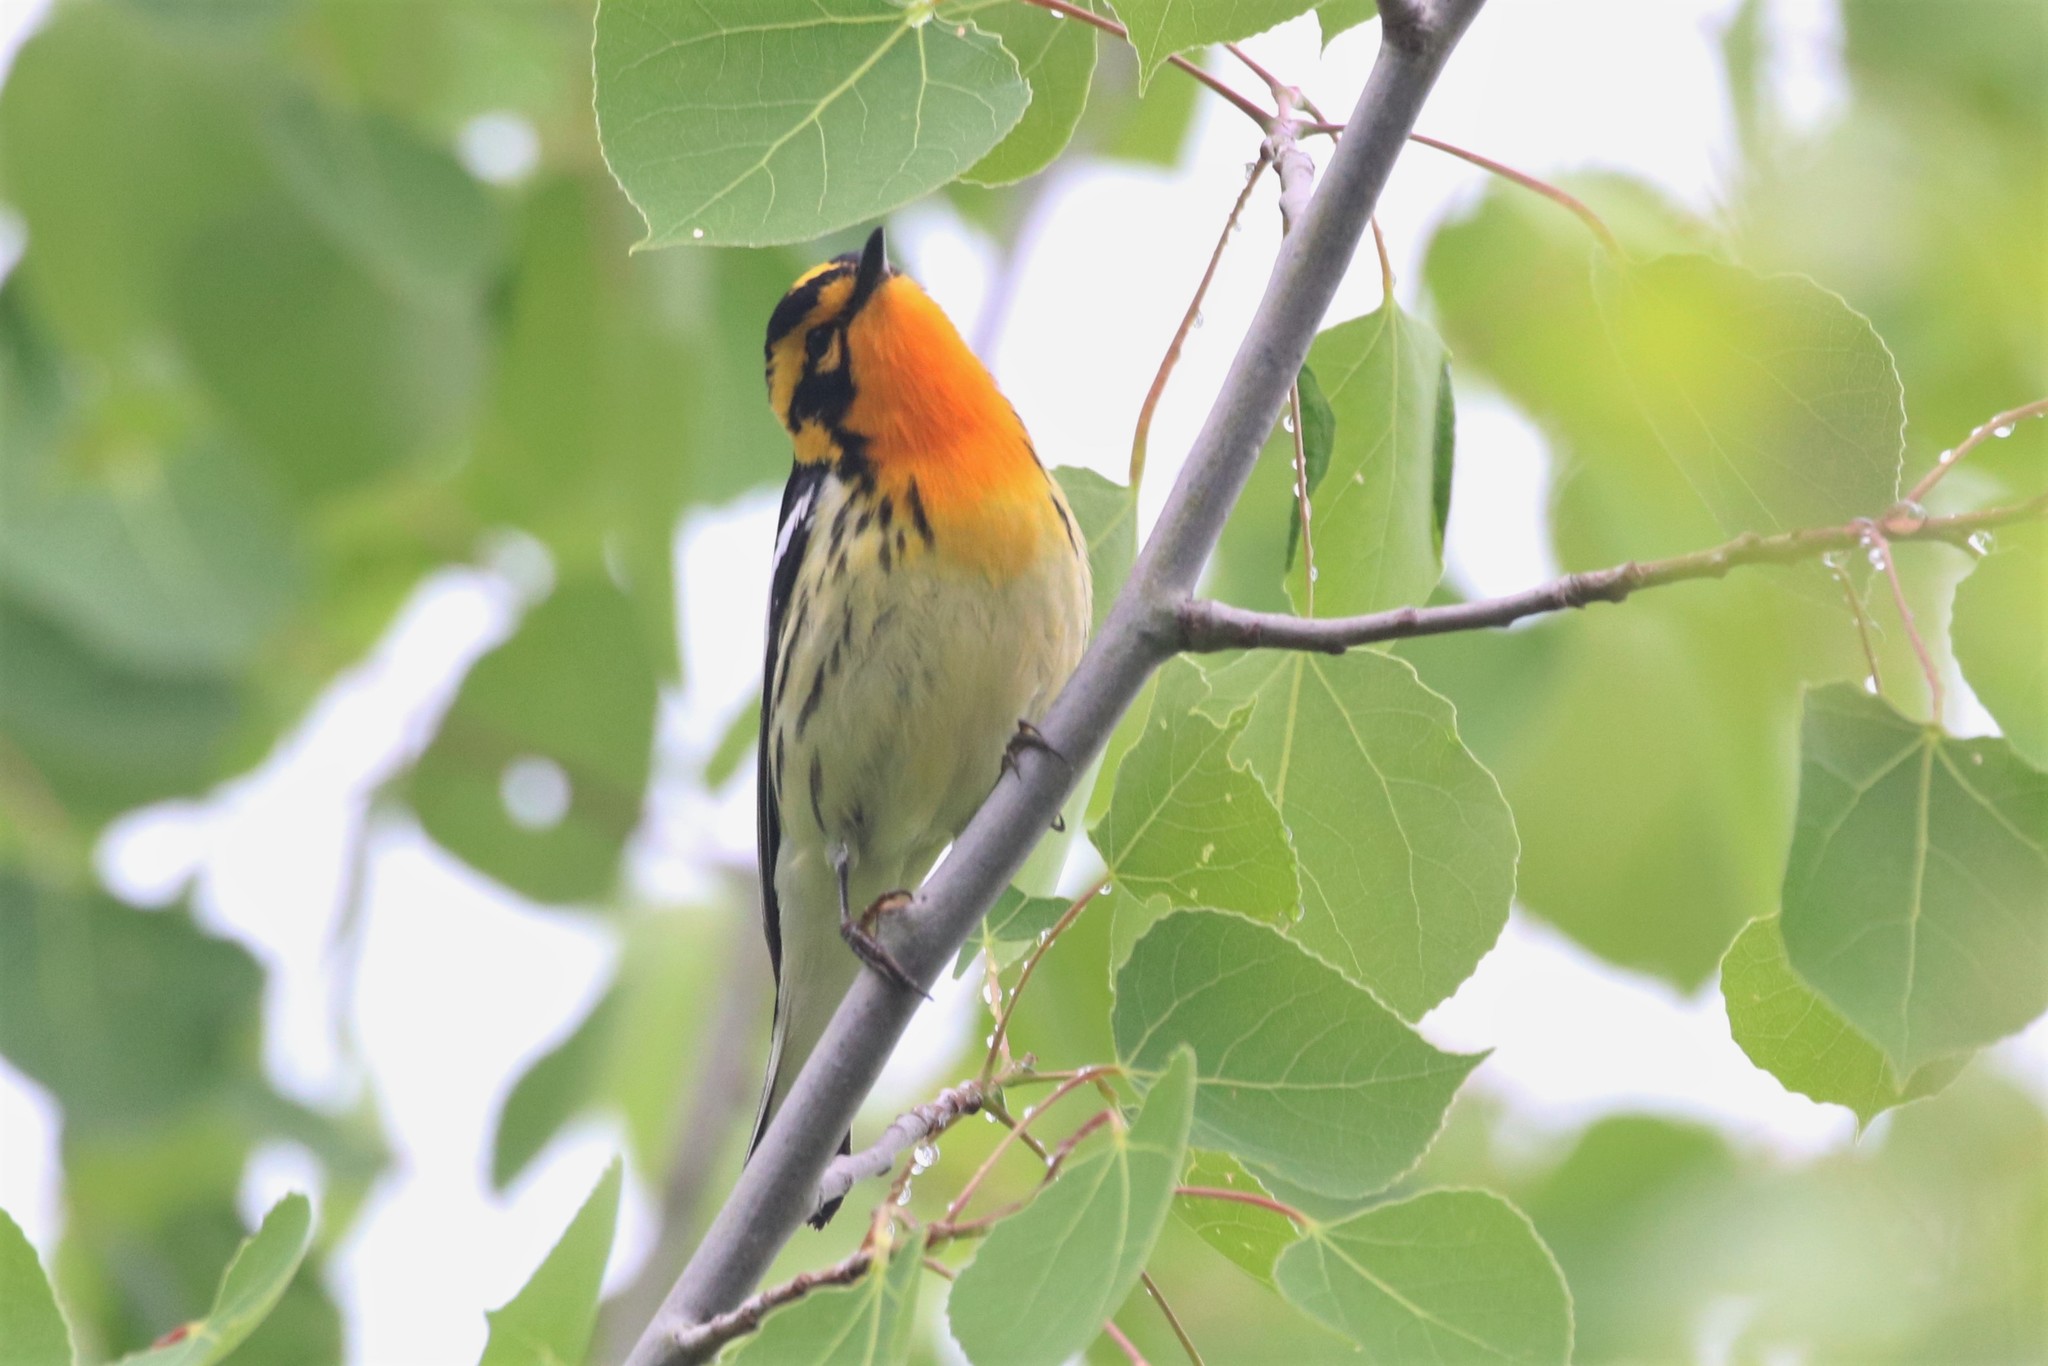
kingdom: Animalia
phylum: Chordata
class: Aves
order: Passeriformes
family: Parulidae
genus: Setophaga
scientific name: Setophaga fusca
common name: Blackburnian warbler
